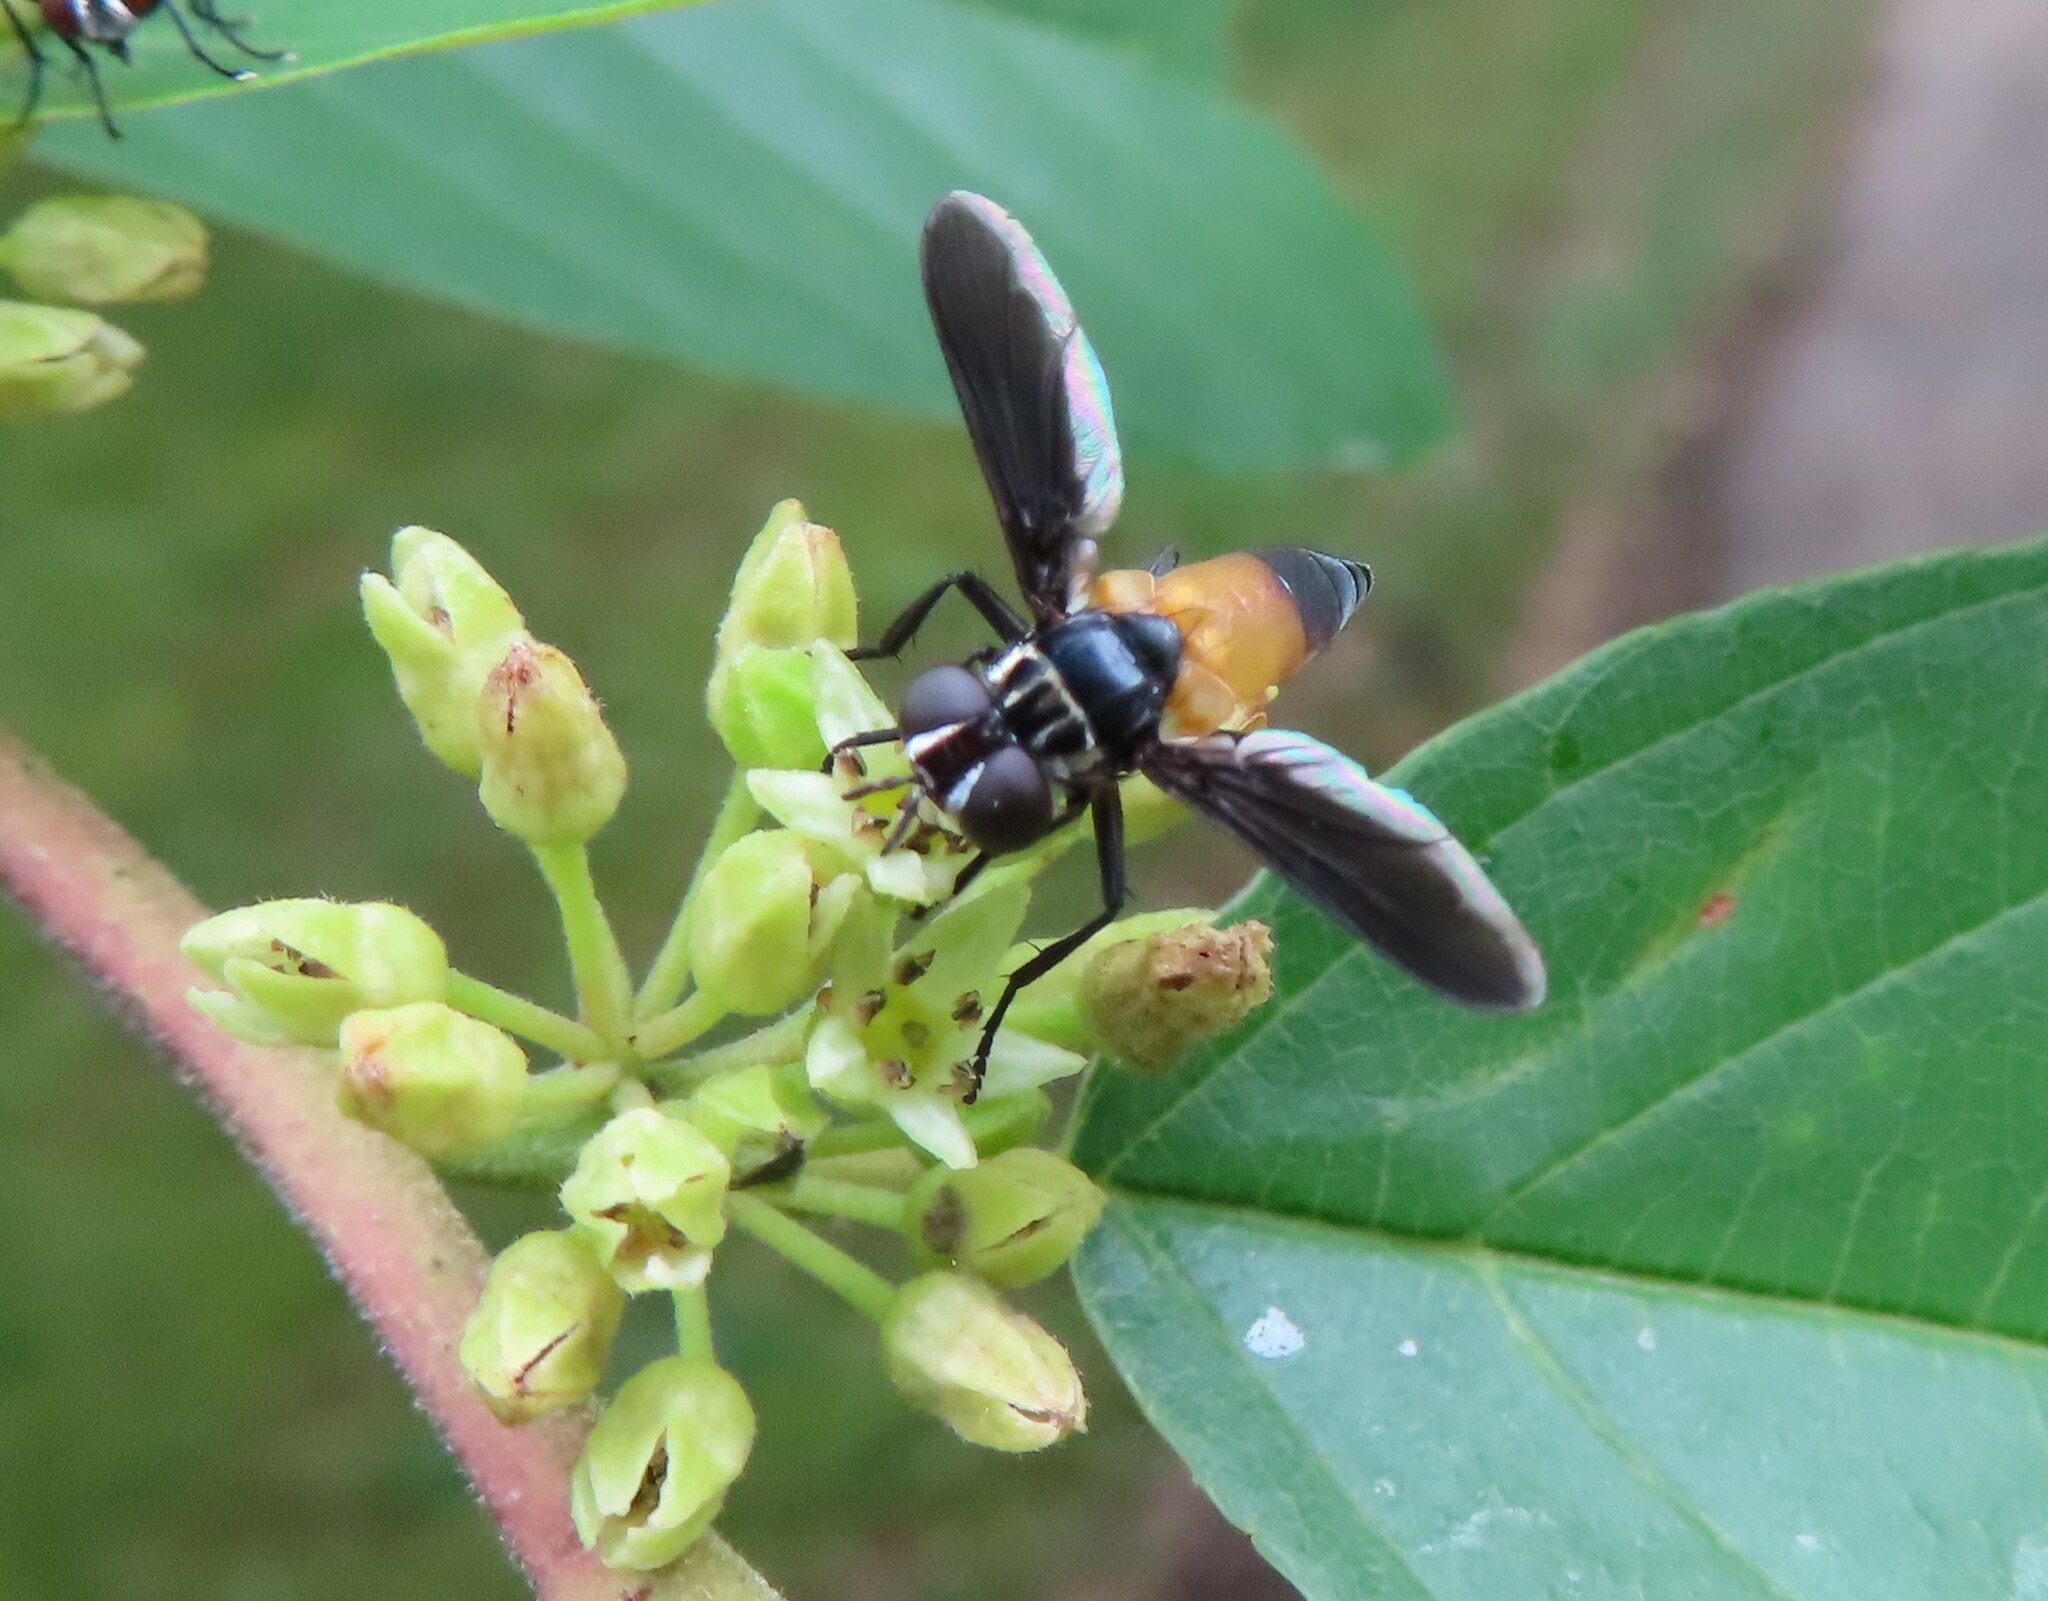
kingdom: Animalia
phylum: Arthropoda
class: Insecta
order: Diptera
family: Tachinidae
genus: Trichopoda
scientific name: Trichopoda pennipes
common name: Tachinid fly
